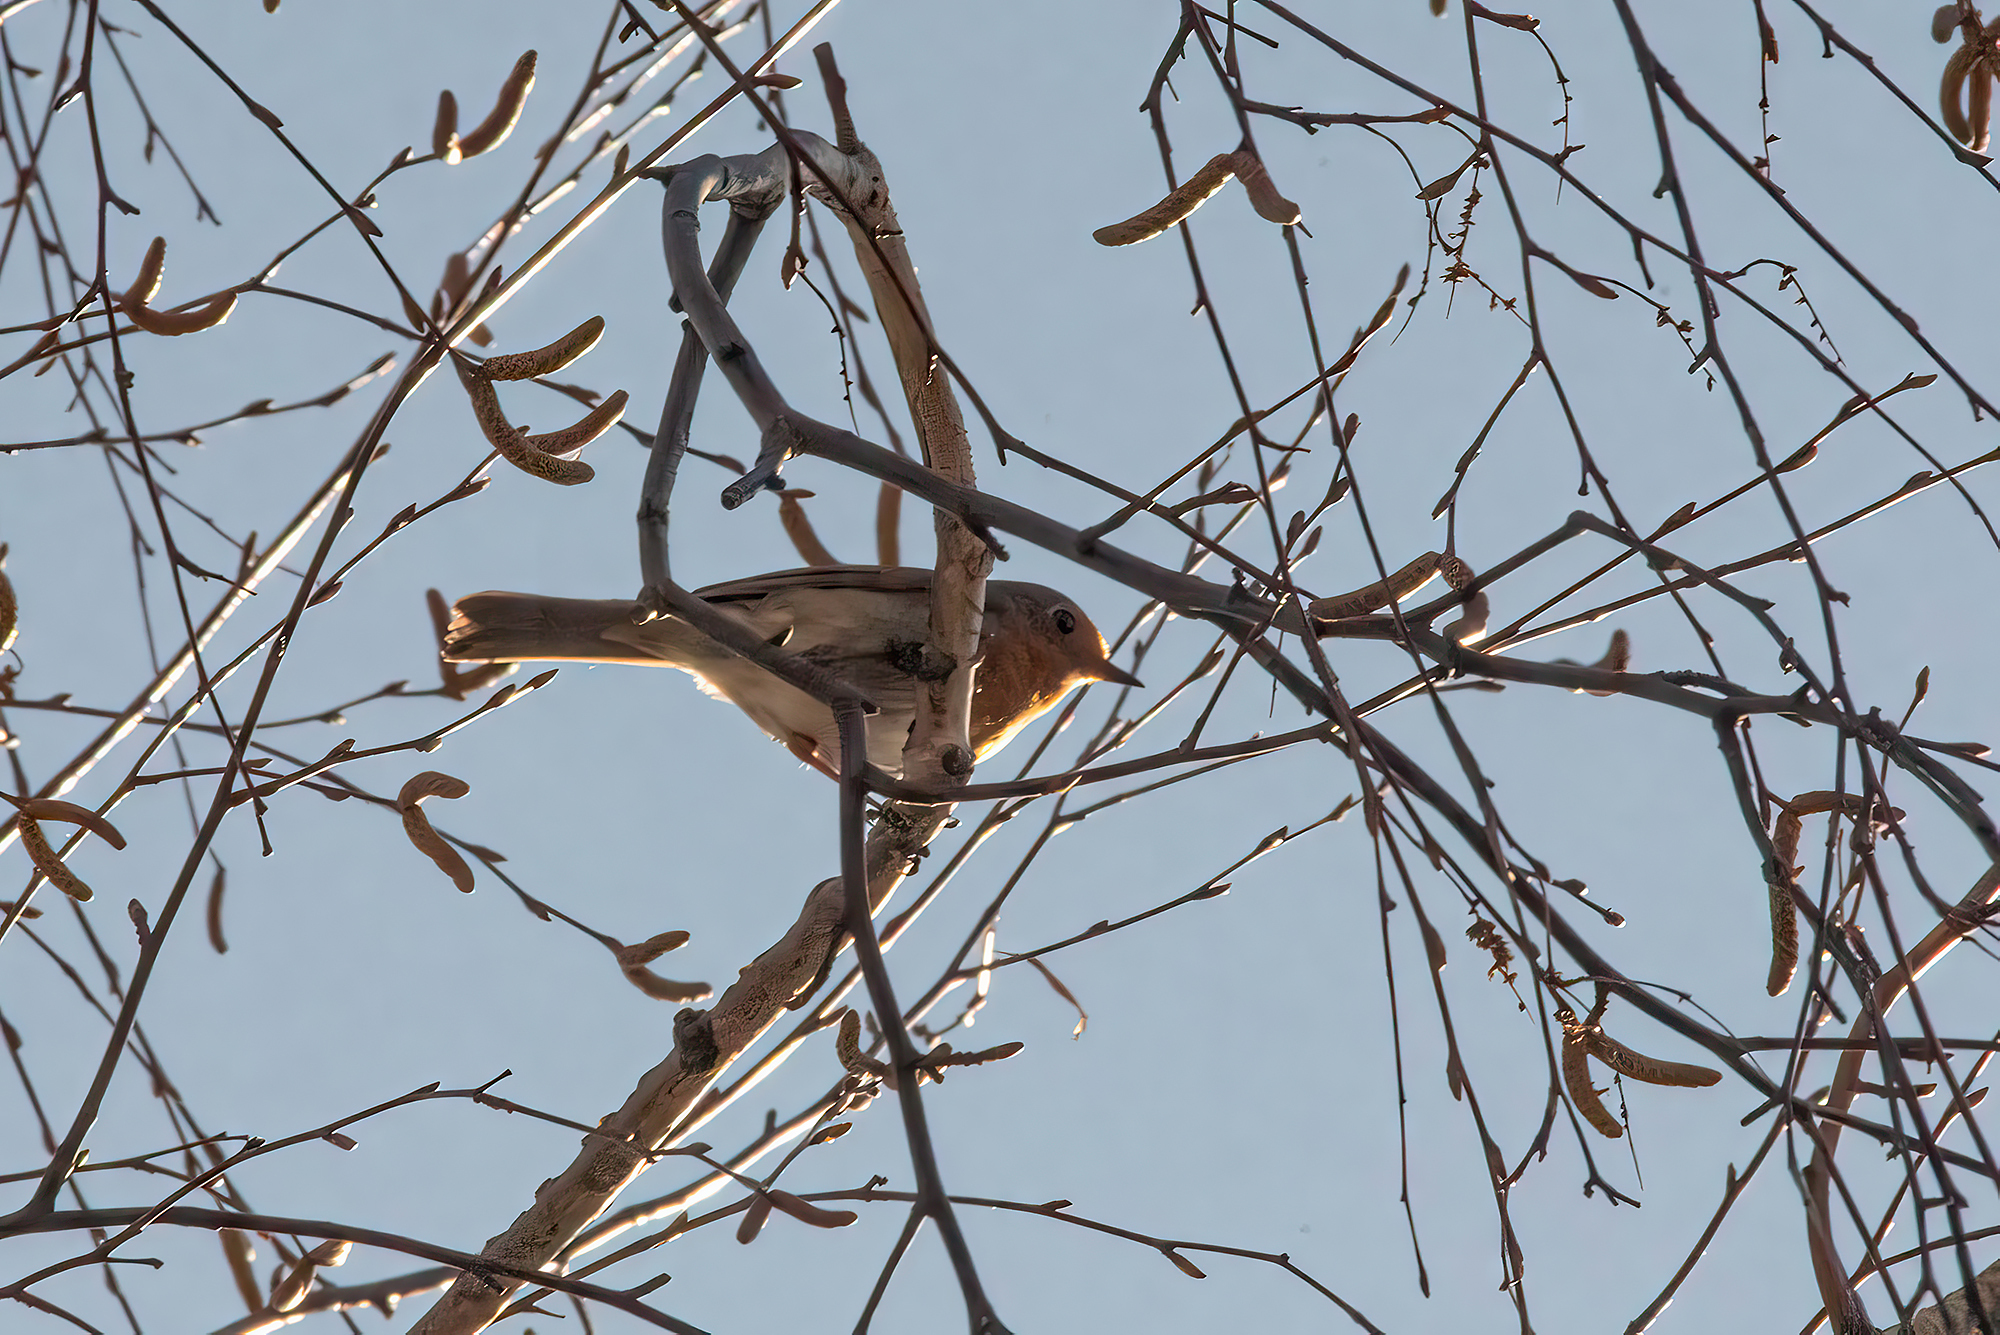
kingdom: Animalia
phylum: Chordata
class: Aves
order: Passeriformes
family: Muscicapidae
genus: Erithacus
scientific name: Erithacus rubecula
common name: European robin
